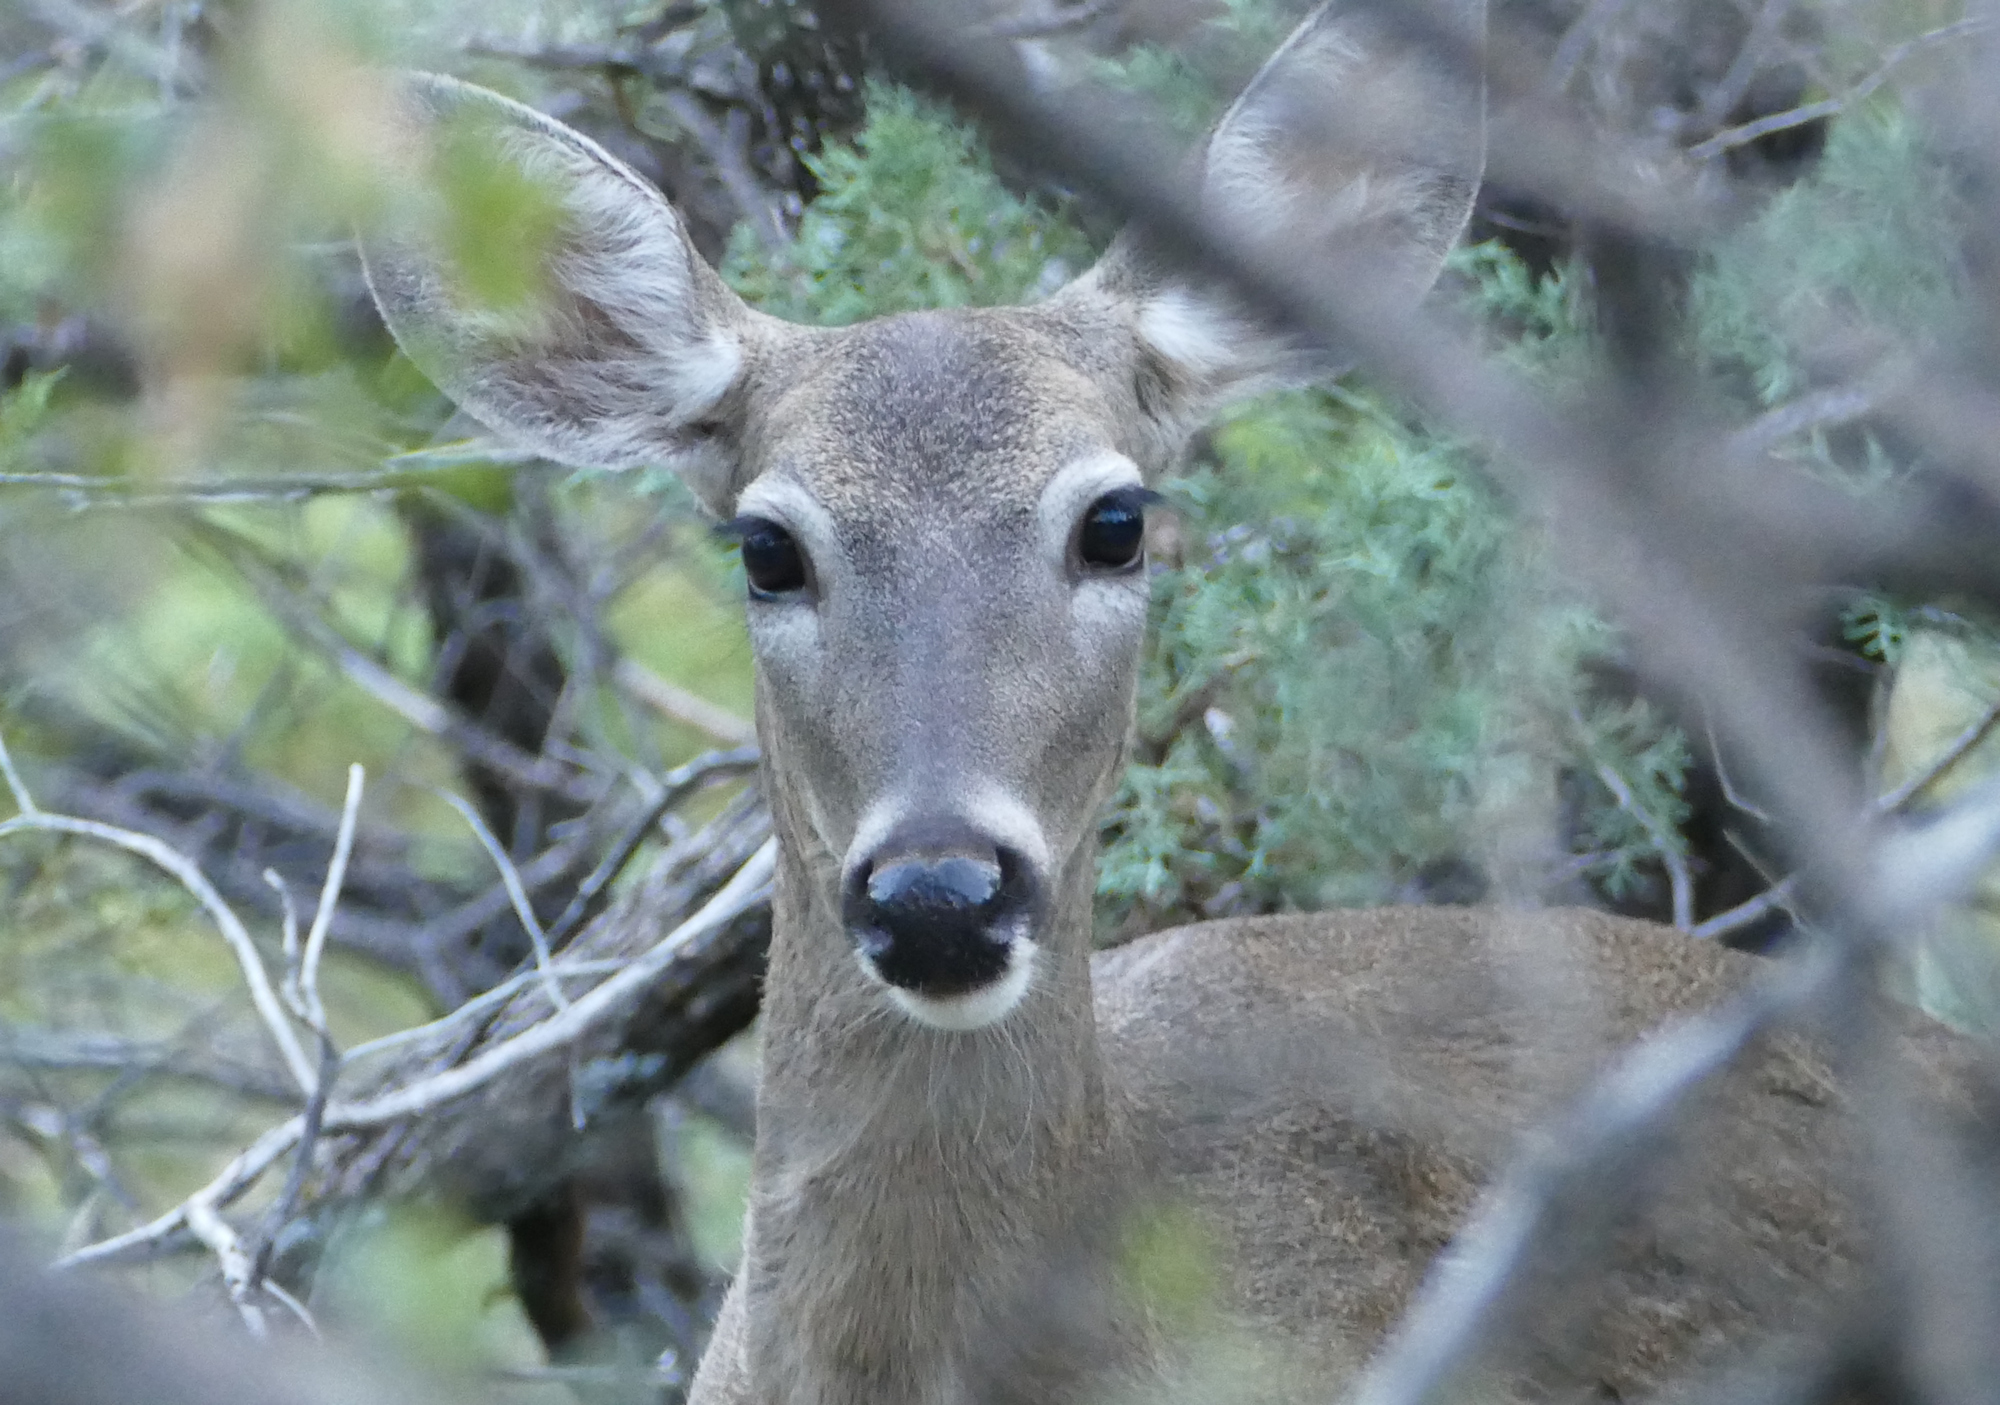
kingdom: Animalia
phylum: Chordata
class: Mammalia
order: Artiodactyla
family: Cervidae
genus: Odocoileus
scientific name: Odocoileus virginianus
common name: White-tailed deer
